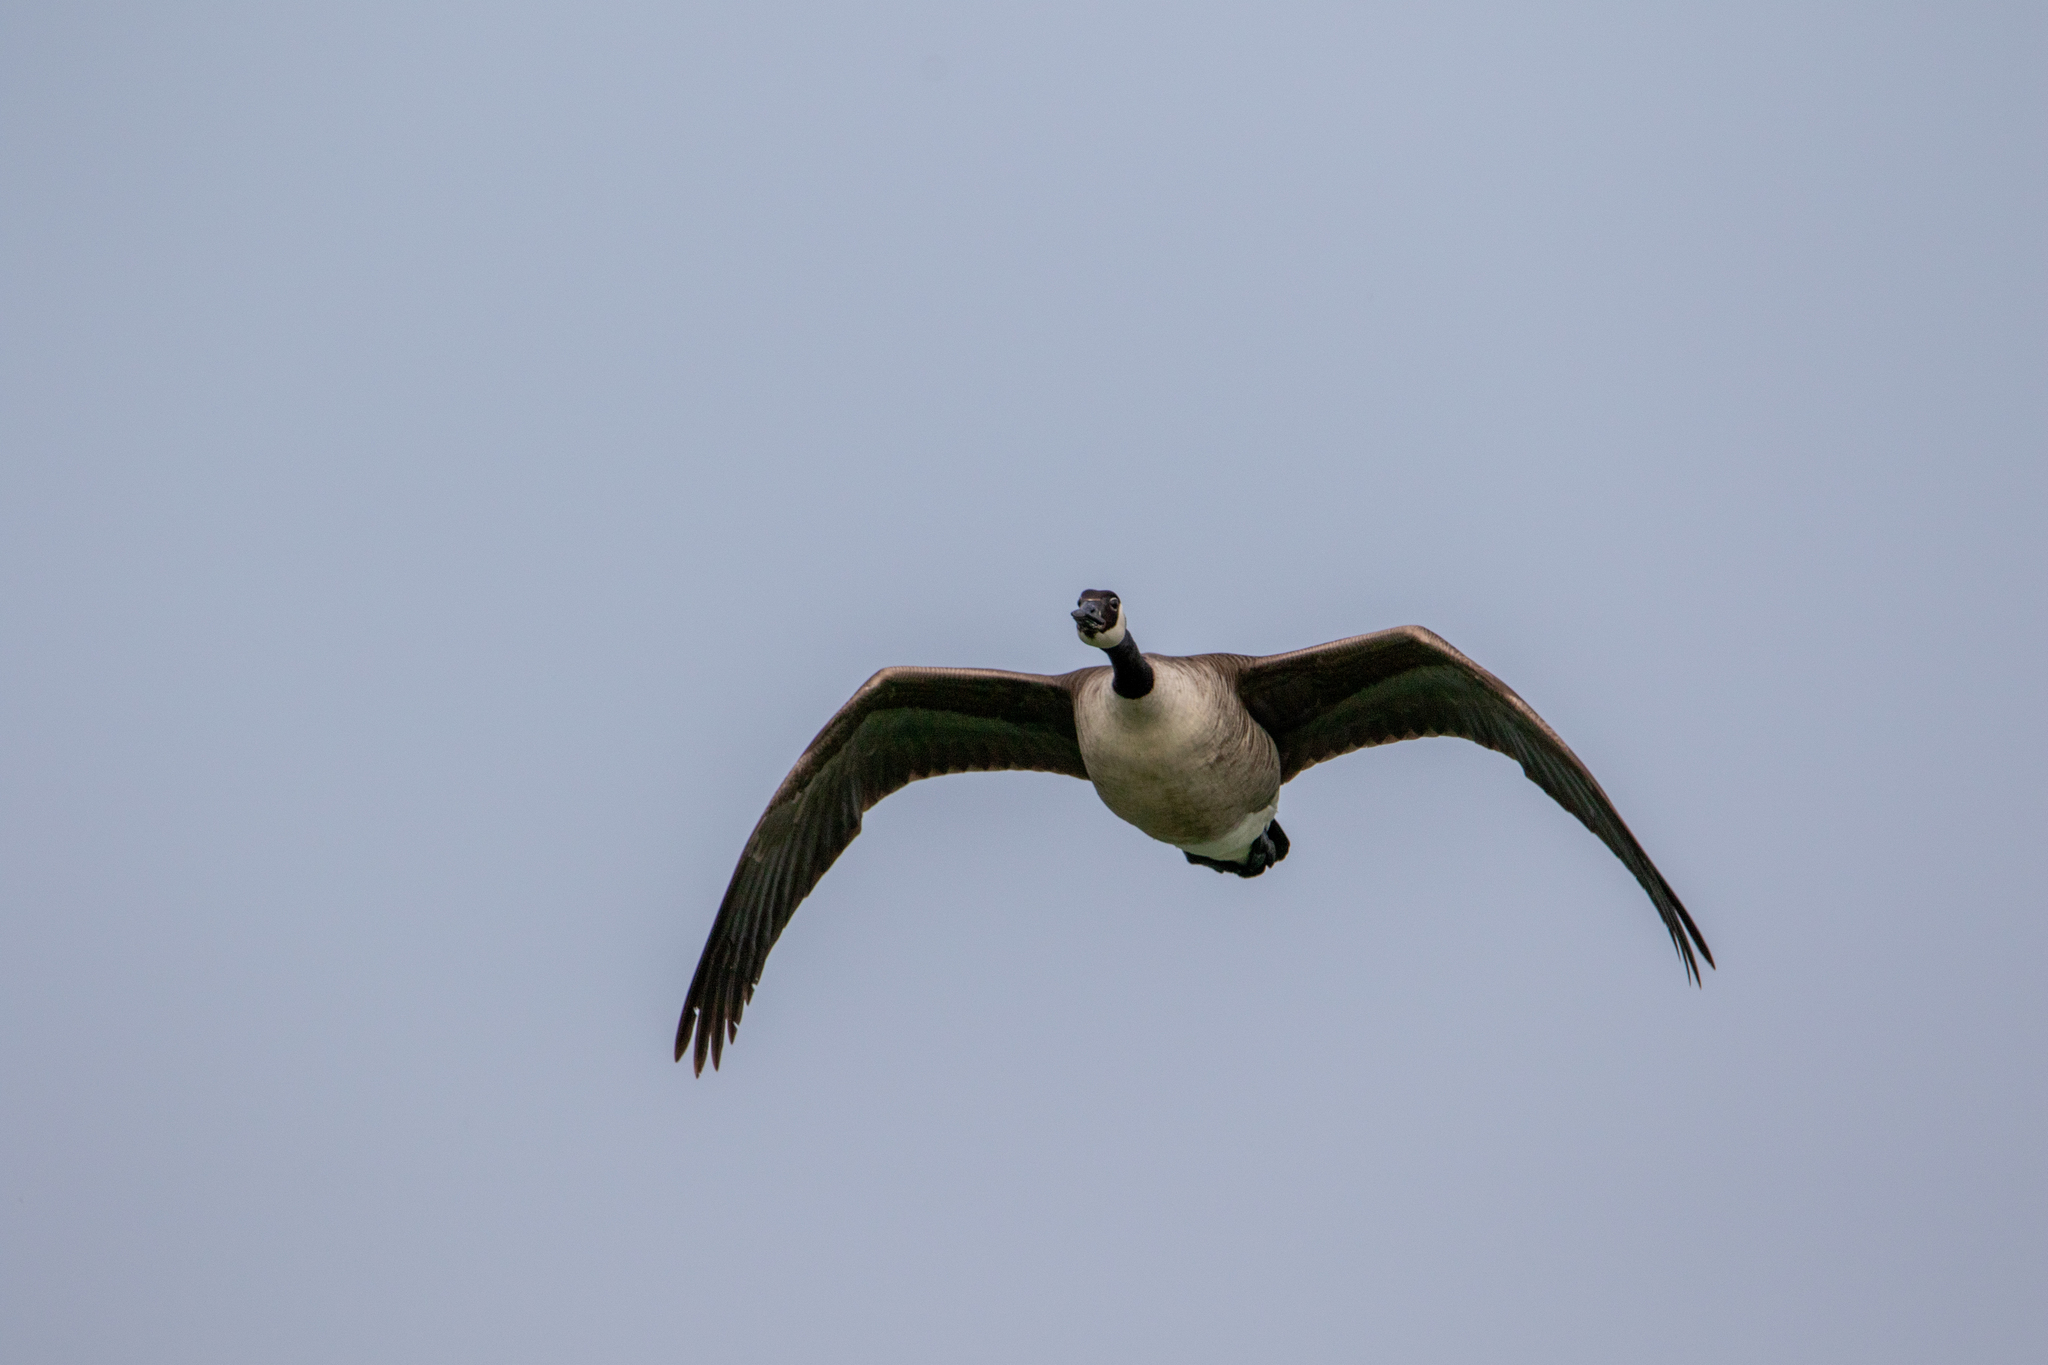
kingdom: Animalia
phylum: Chordata
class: Aves
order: Anseriformes
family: Anatidae
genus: Branta
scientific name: Branta canadensis
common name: Canada goose
